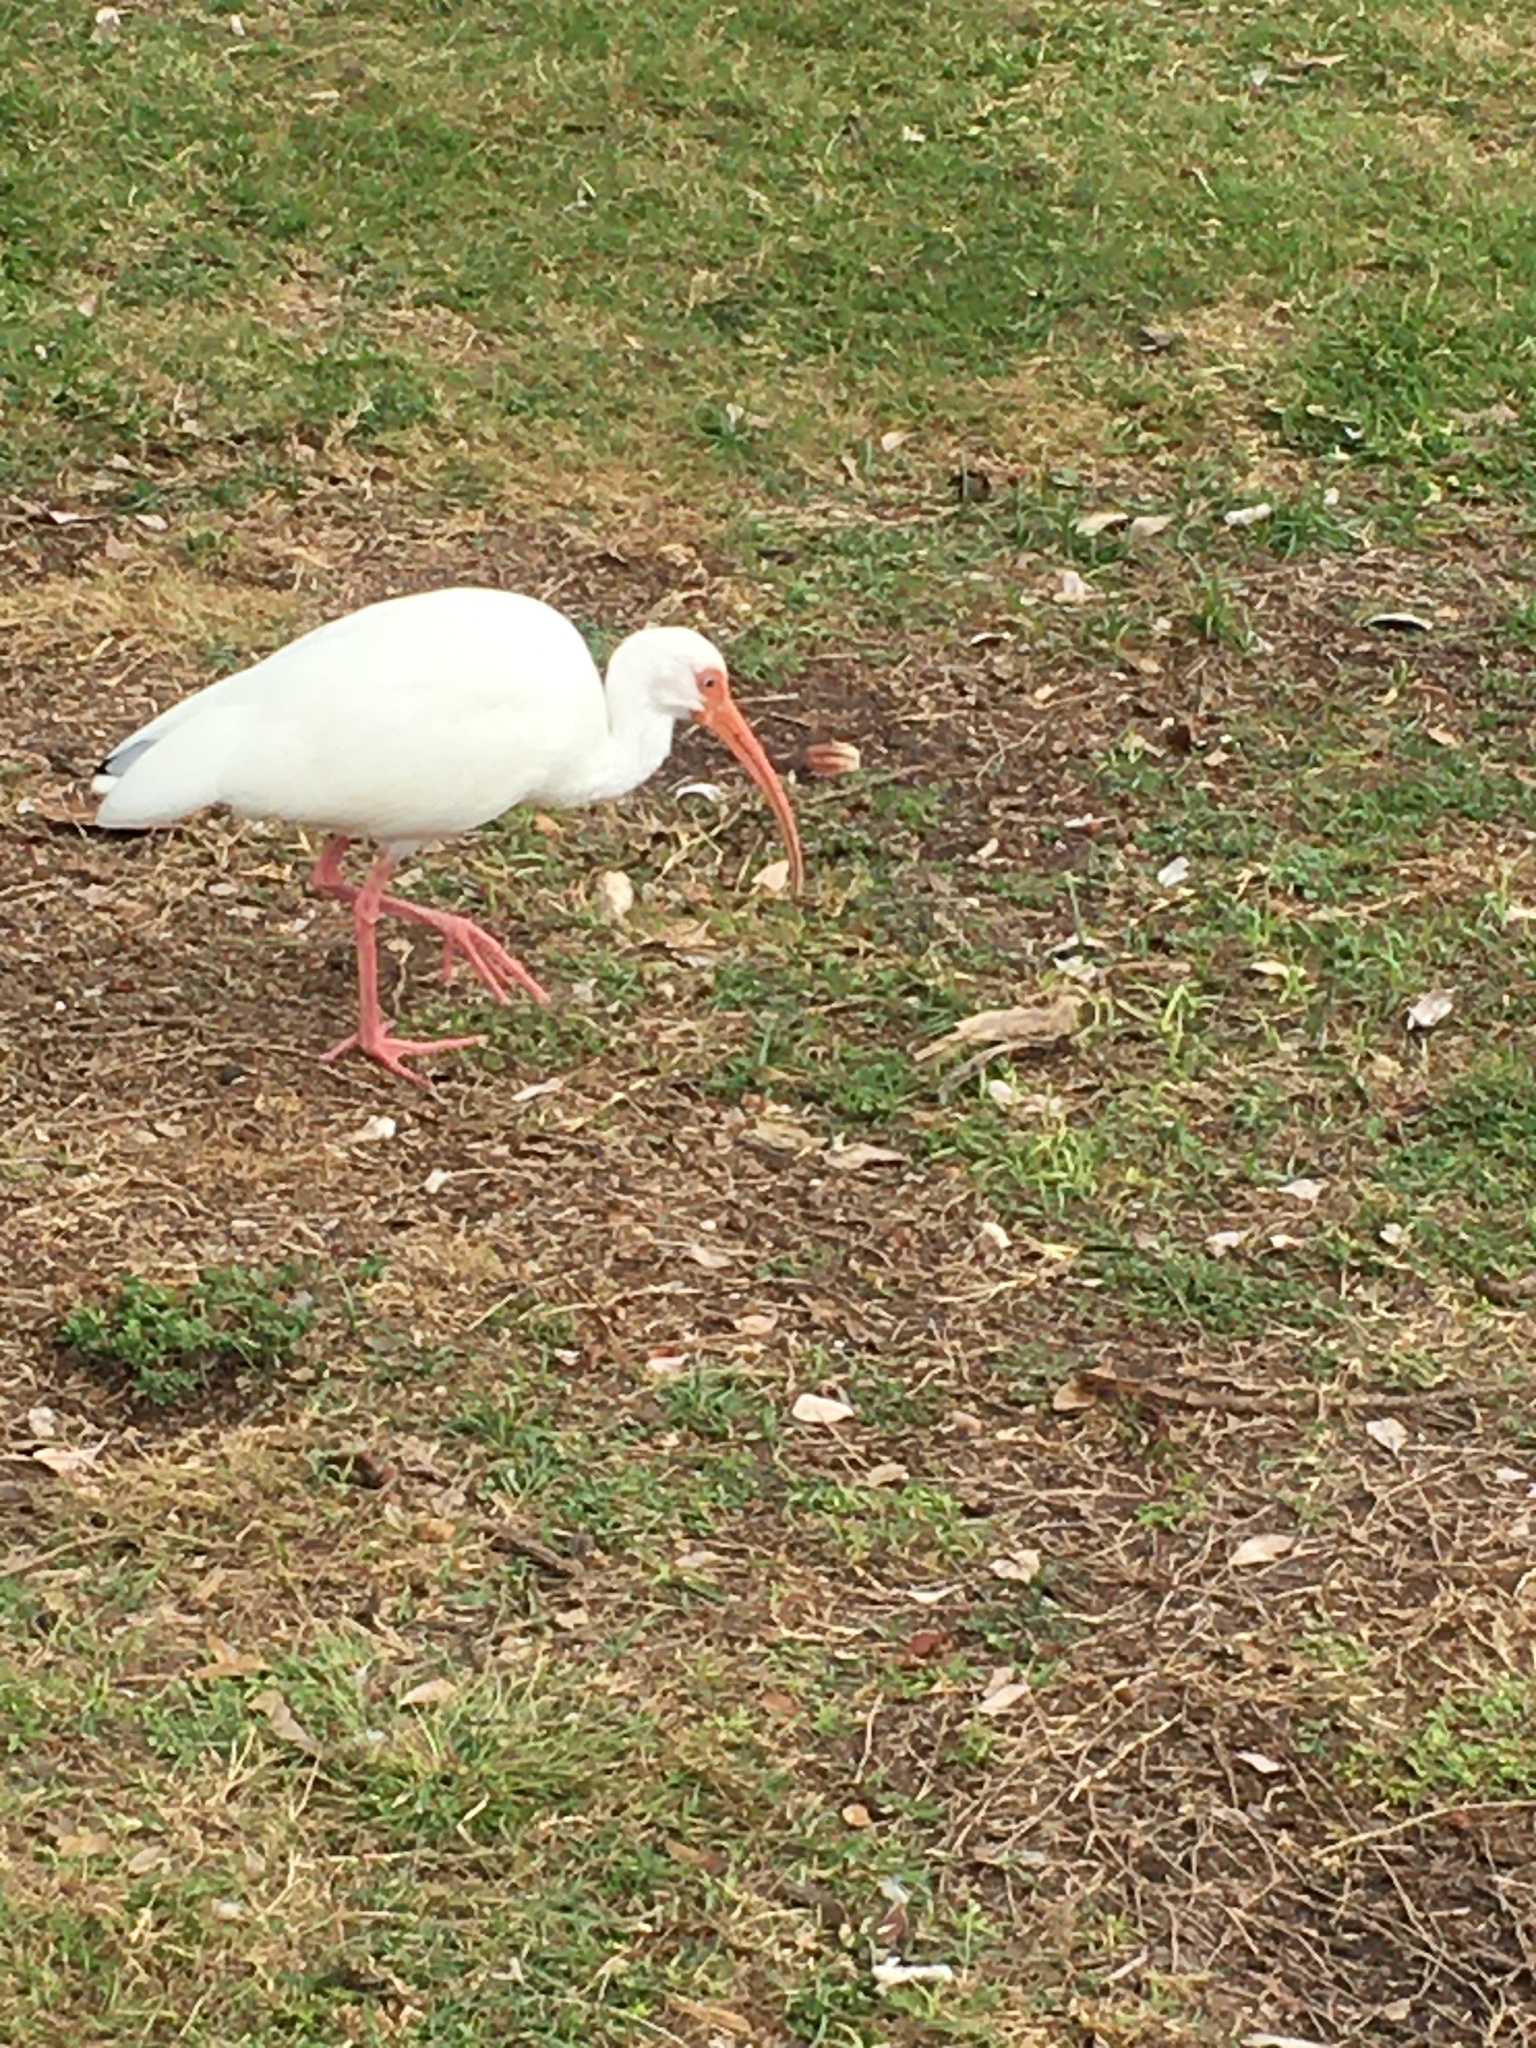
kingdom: Animalia
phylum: Chordata
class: Aves
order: Pelecaniformes
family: Threskiornithidae
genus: Eudocimus
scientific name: Eudocimus albus
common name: White ibis
